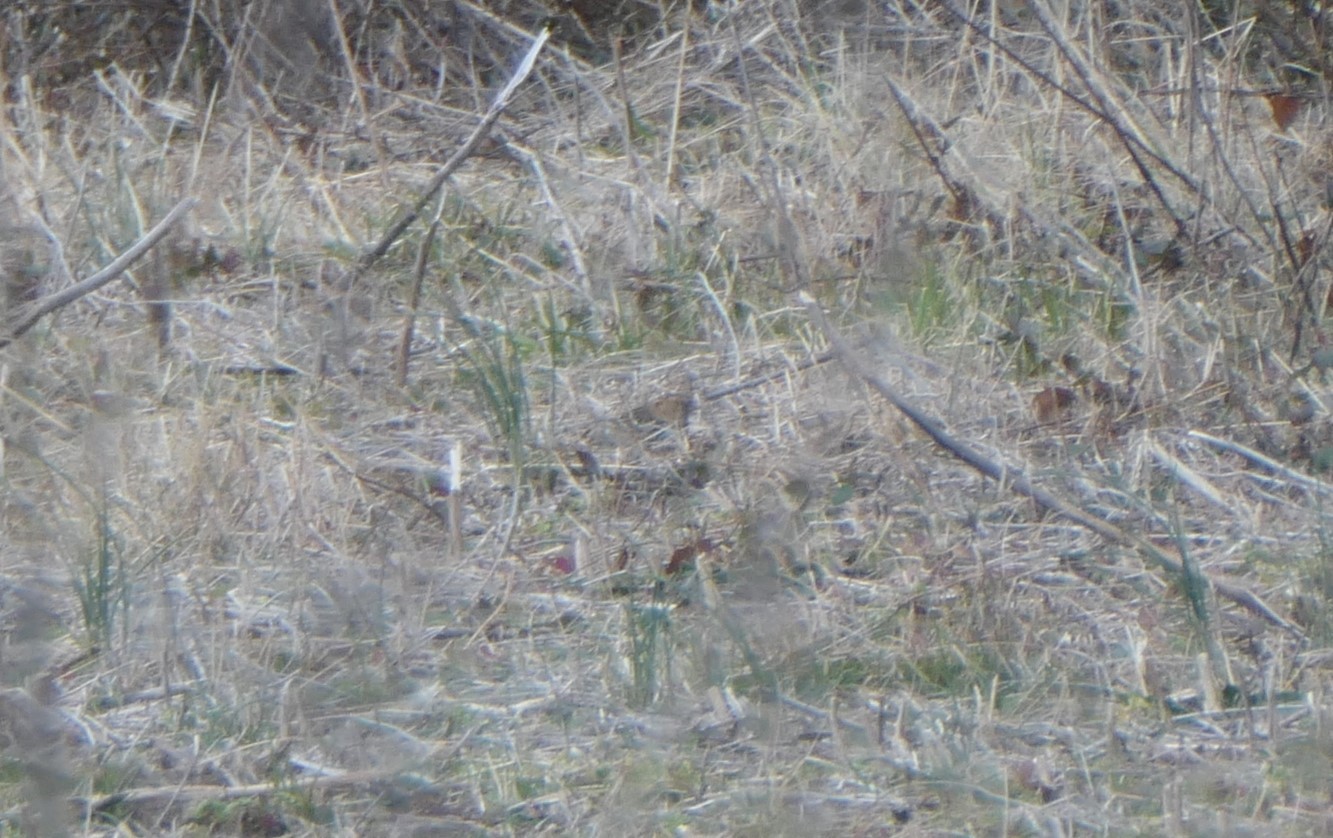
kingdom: Animalia
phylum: Chordata
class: Aves
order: Passeriformes
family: Passerellidae
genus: Zonotrichia
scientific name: Zonotrichia querula
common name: Harris's sparrow
